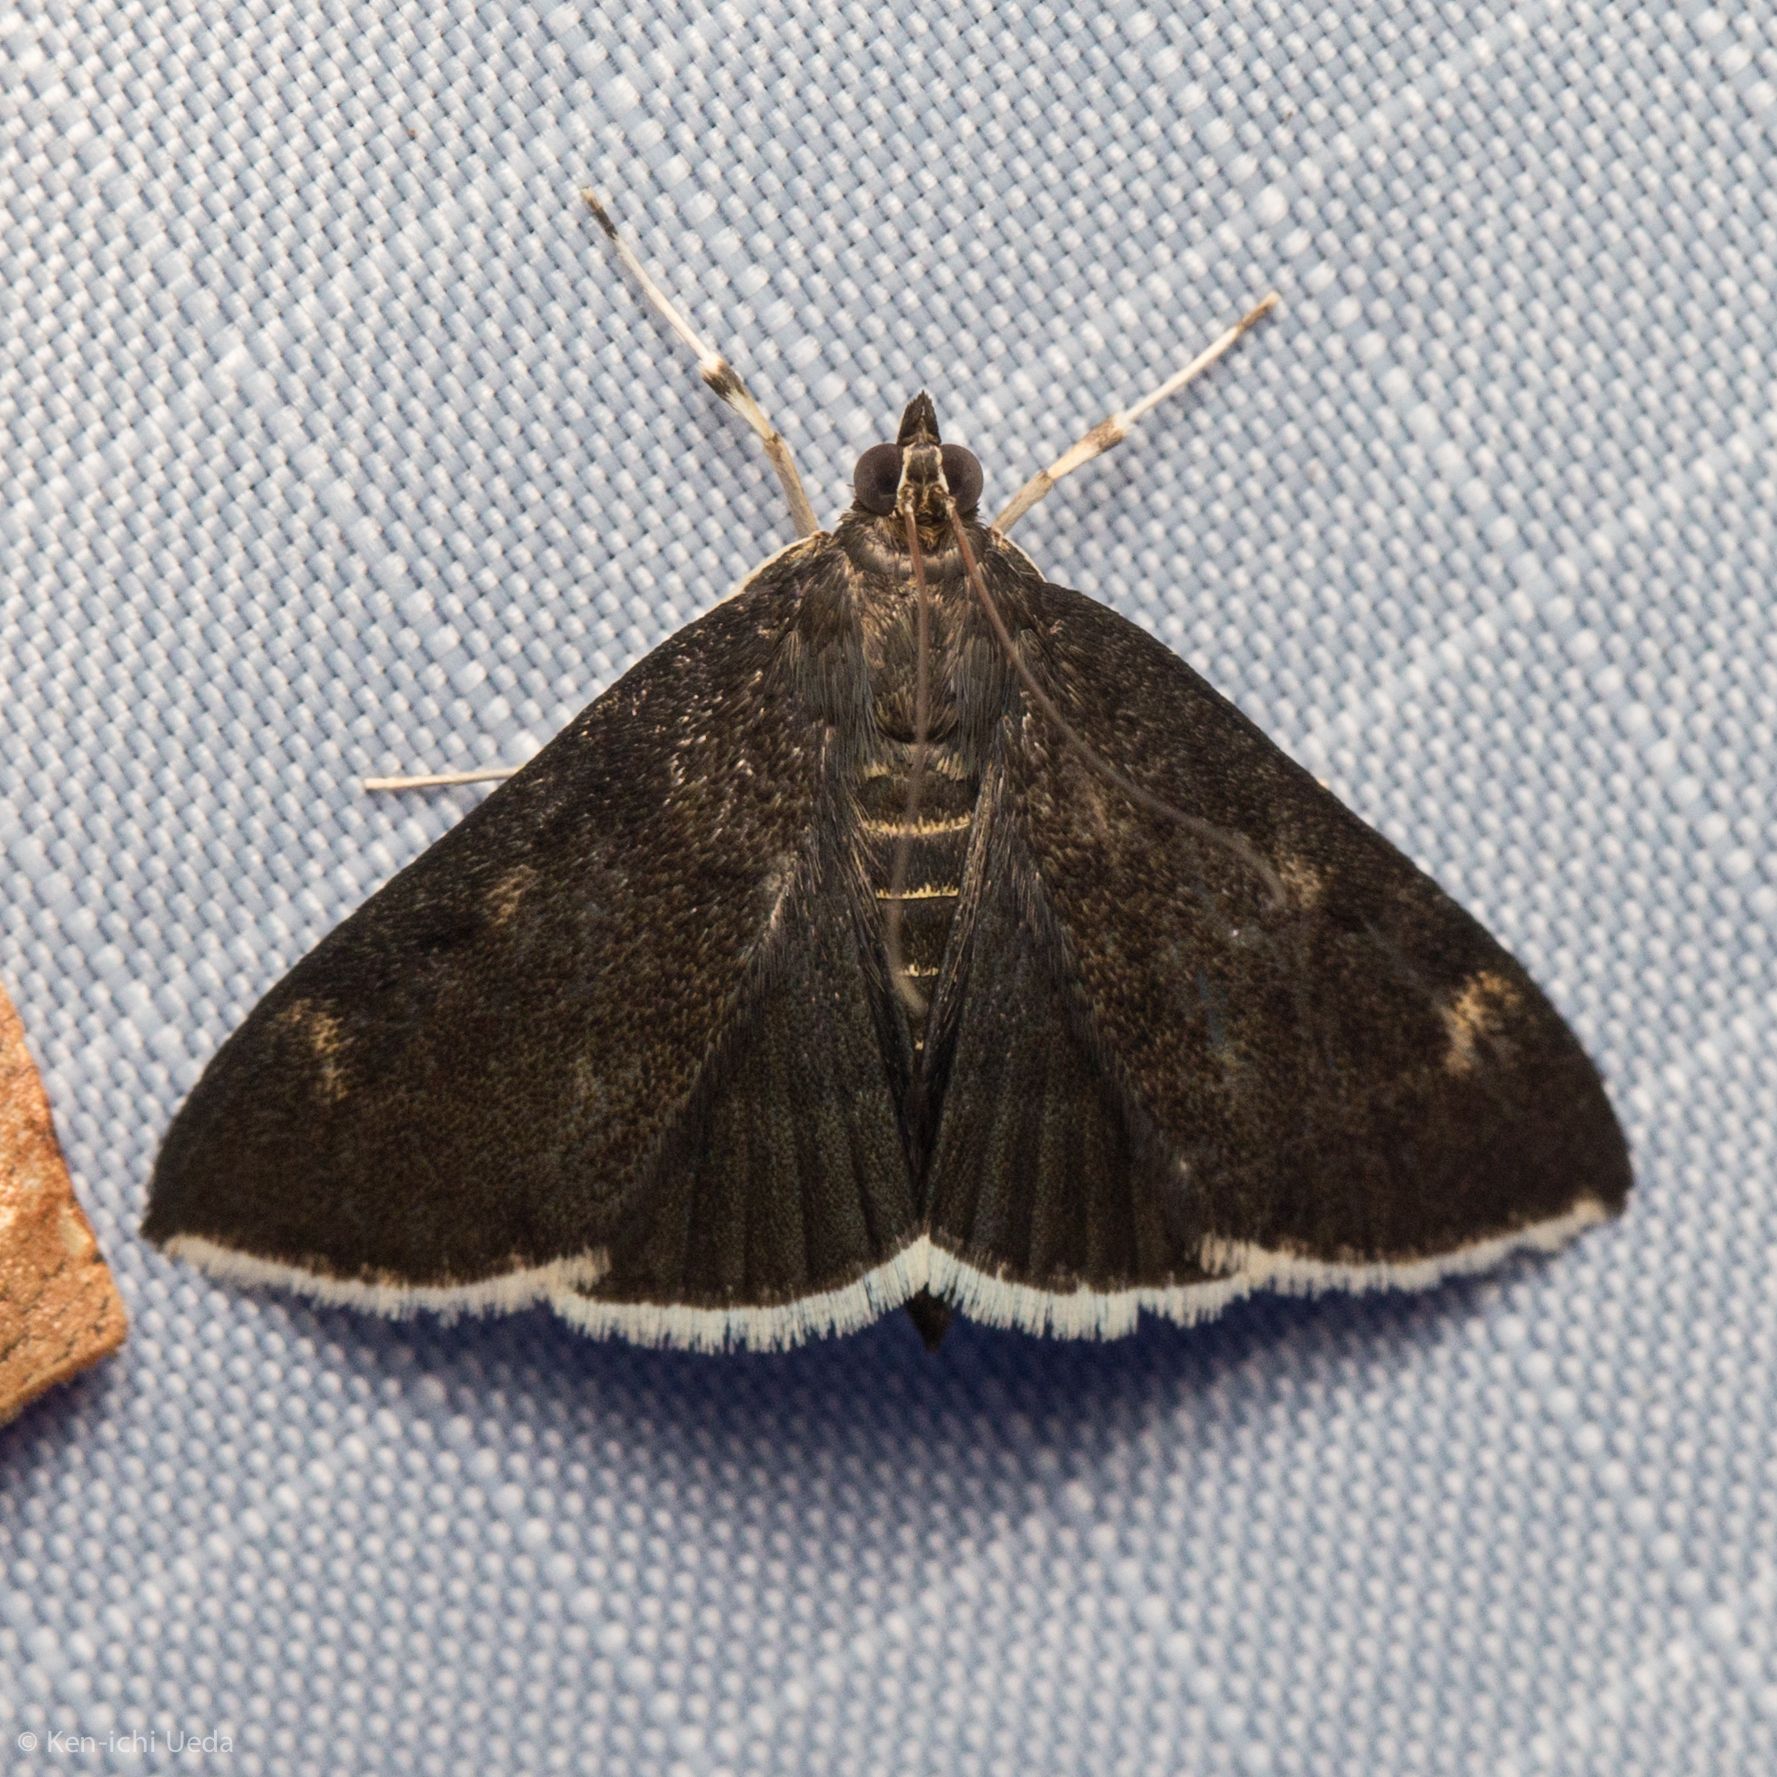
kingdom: Animalia
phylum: Arthropoda
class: Insecta
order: Lepidoptera
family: Crambidae
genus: Pyrausta
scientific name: Pyrausta niveicilialis
